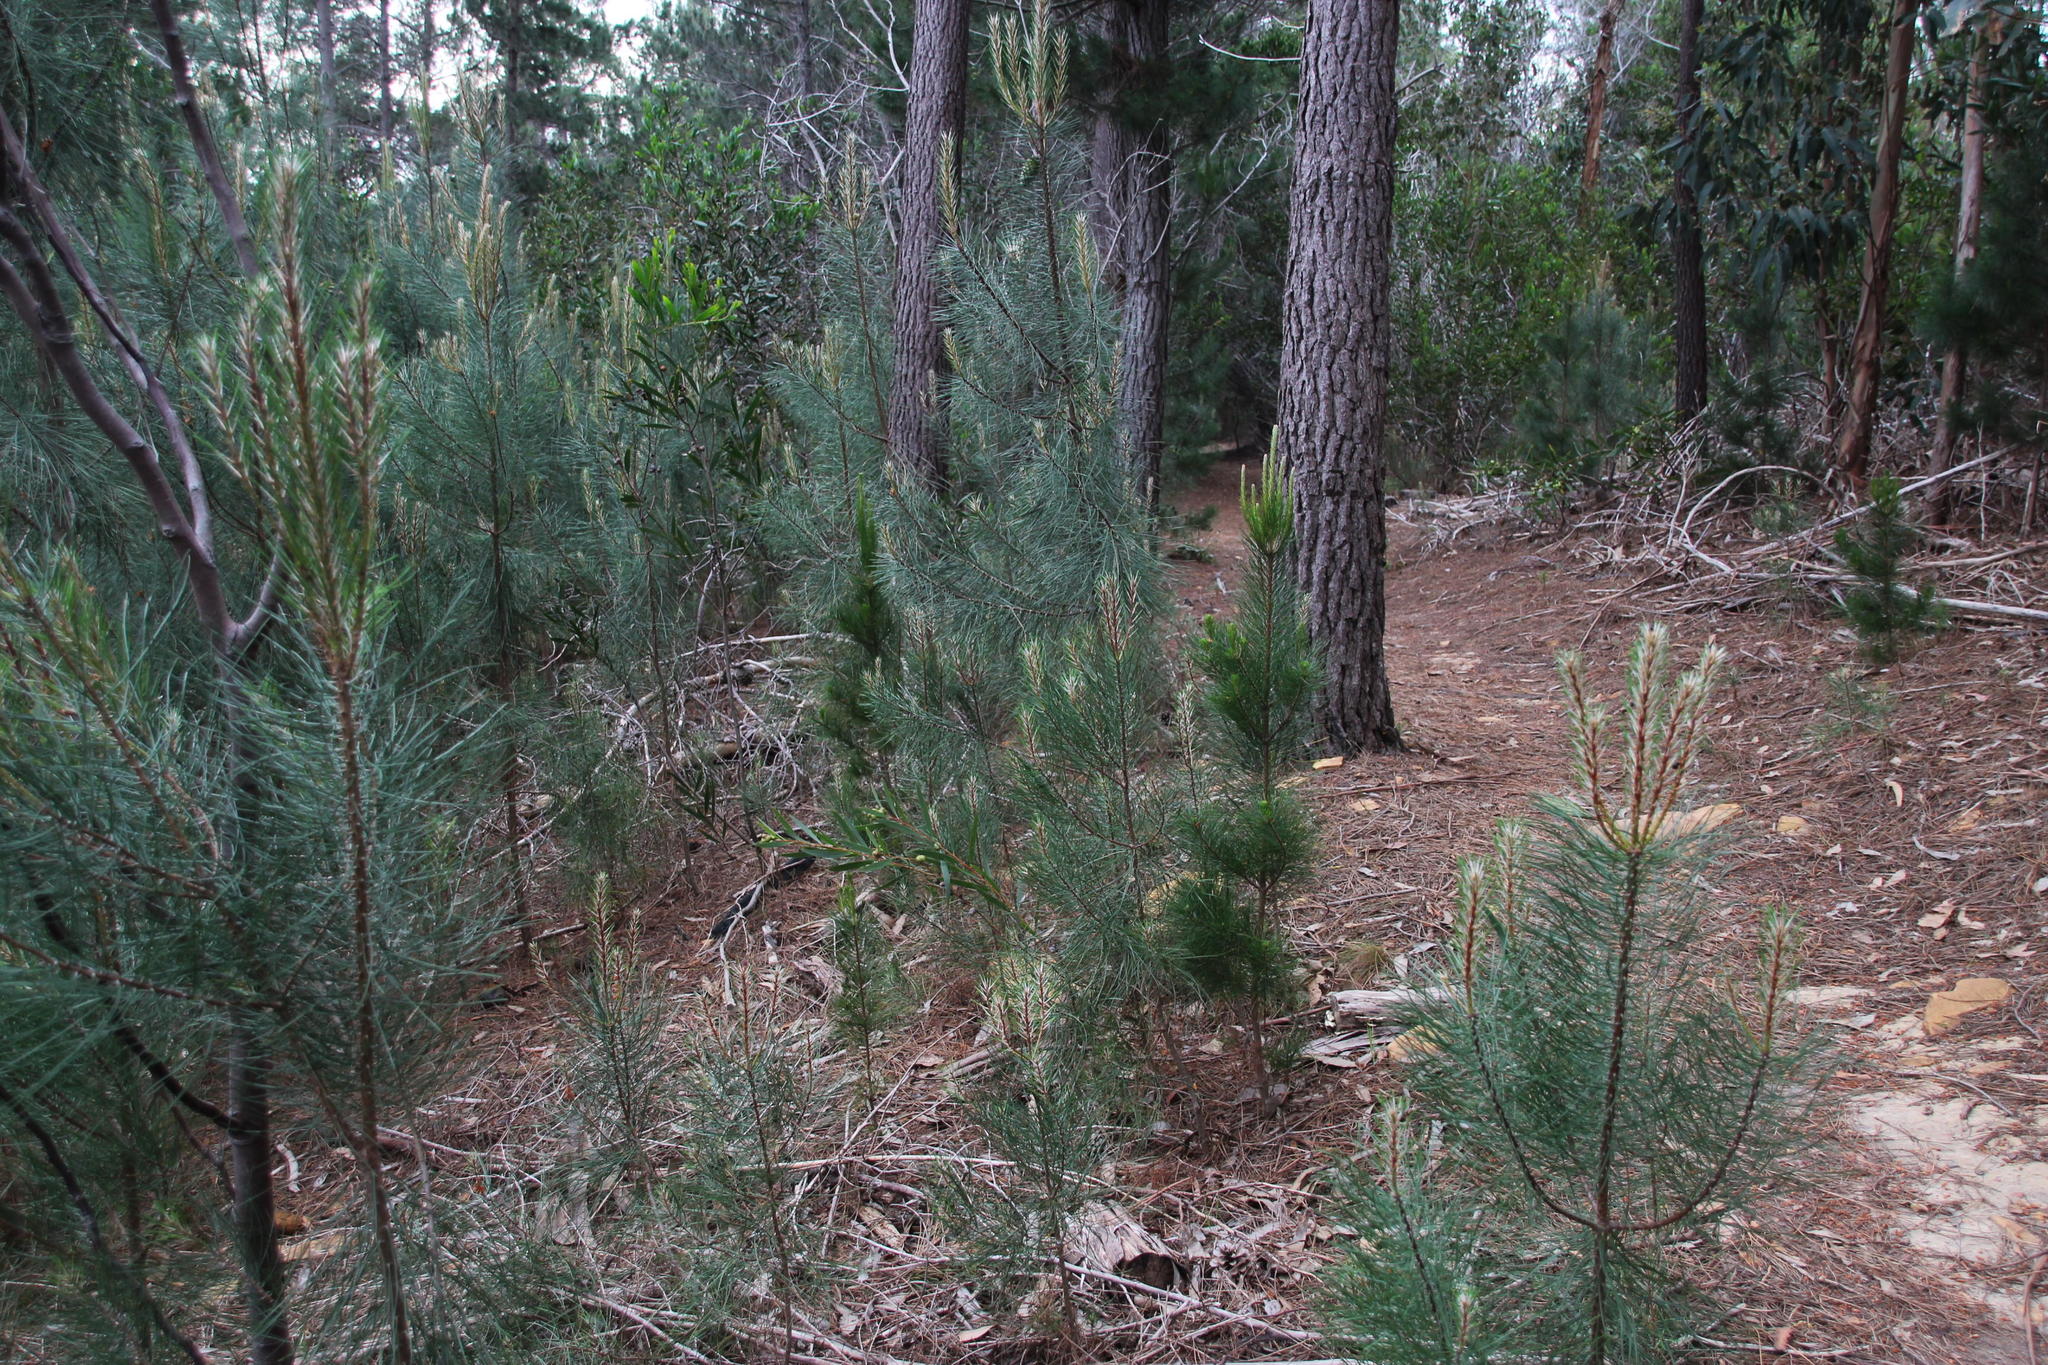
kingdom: Plantae
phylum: Tracheophyta
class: Pinopsida
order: Pinales
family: Pinaceae
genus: Pinus
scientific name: Pinus pinaster
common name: Maritime pine
